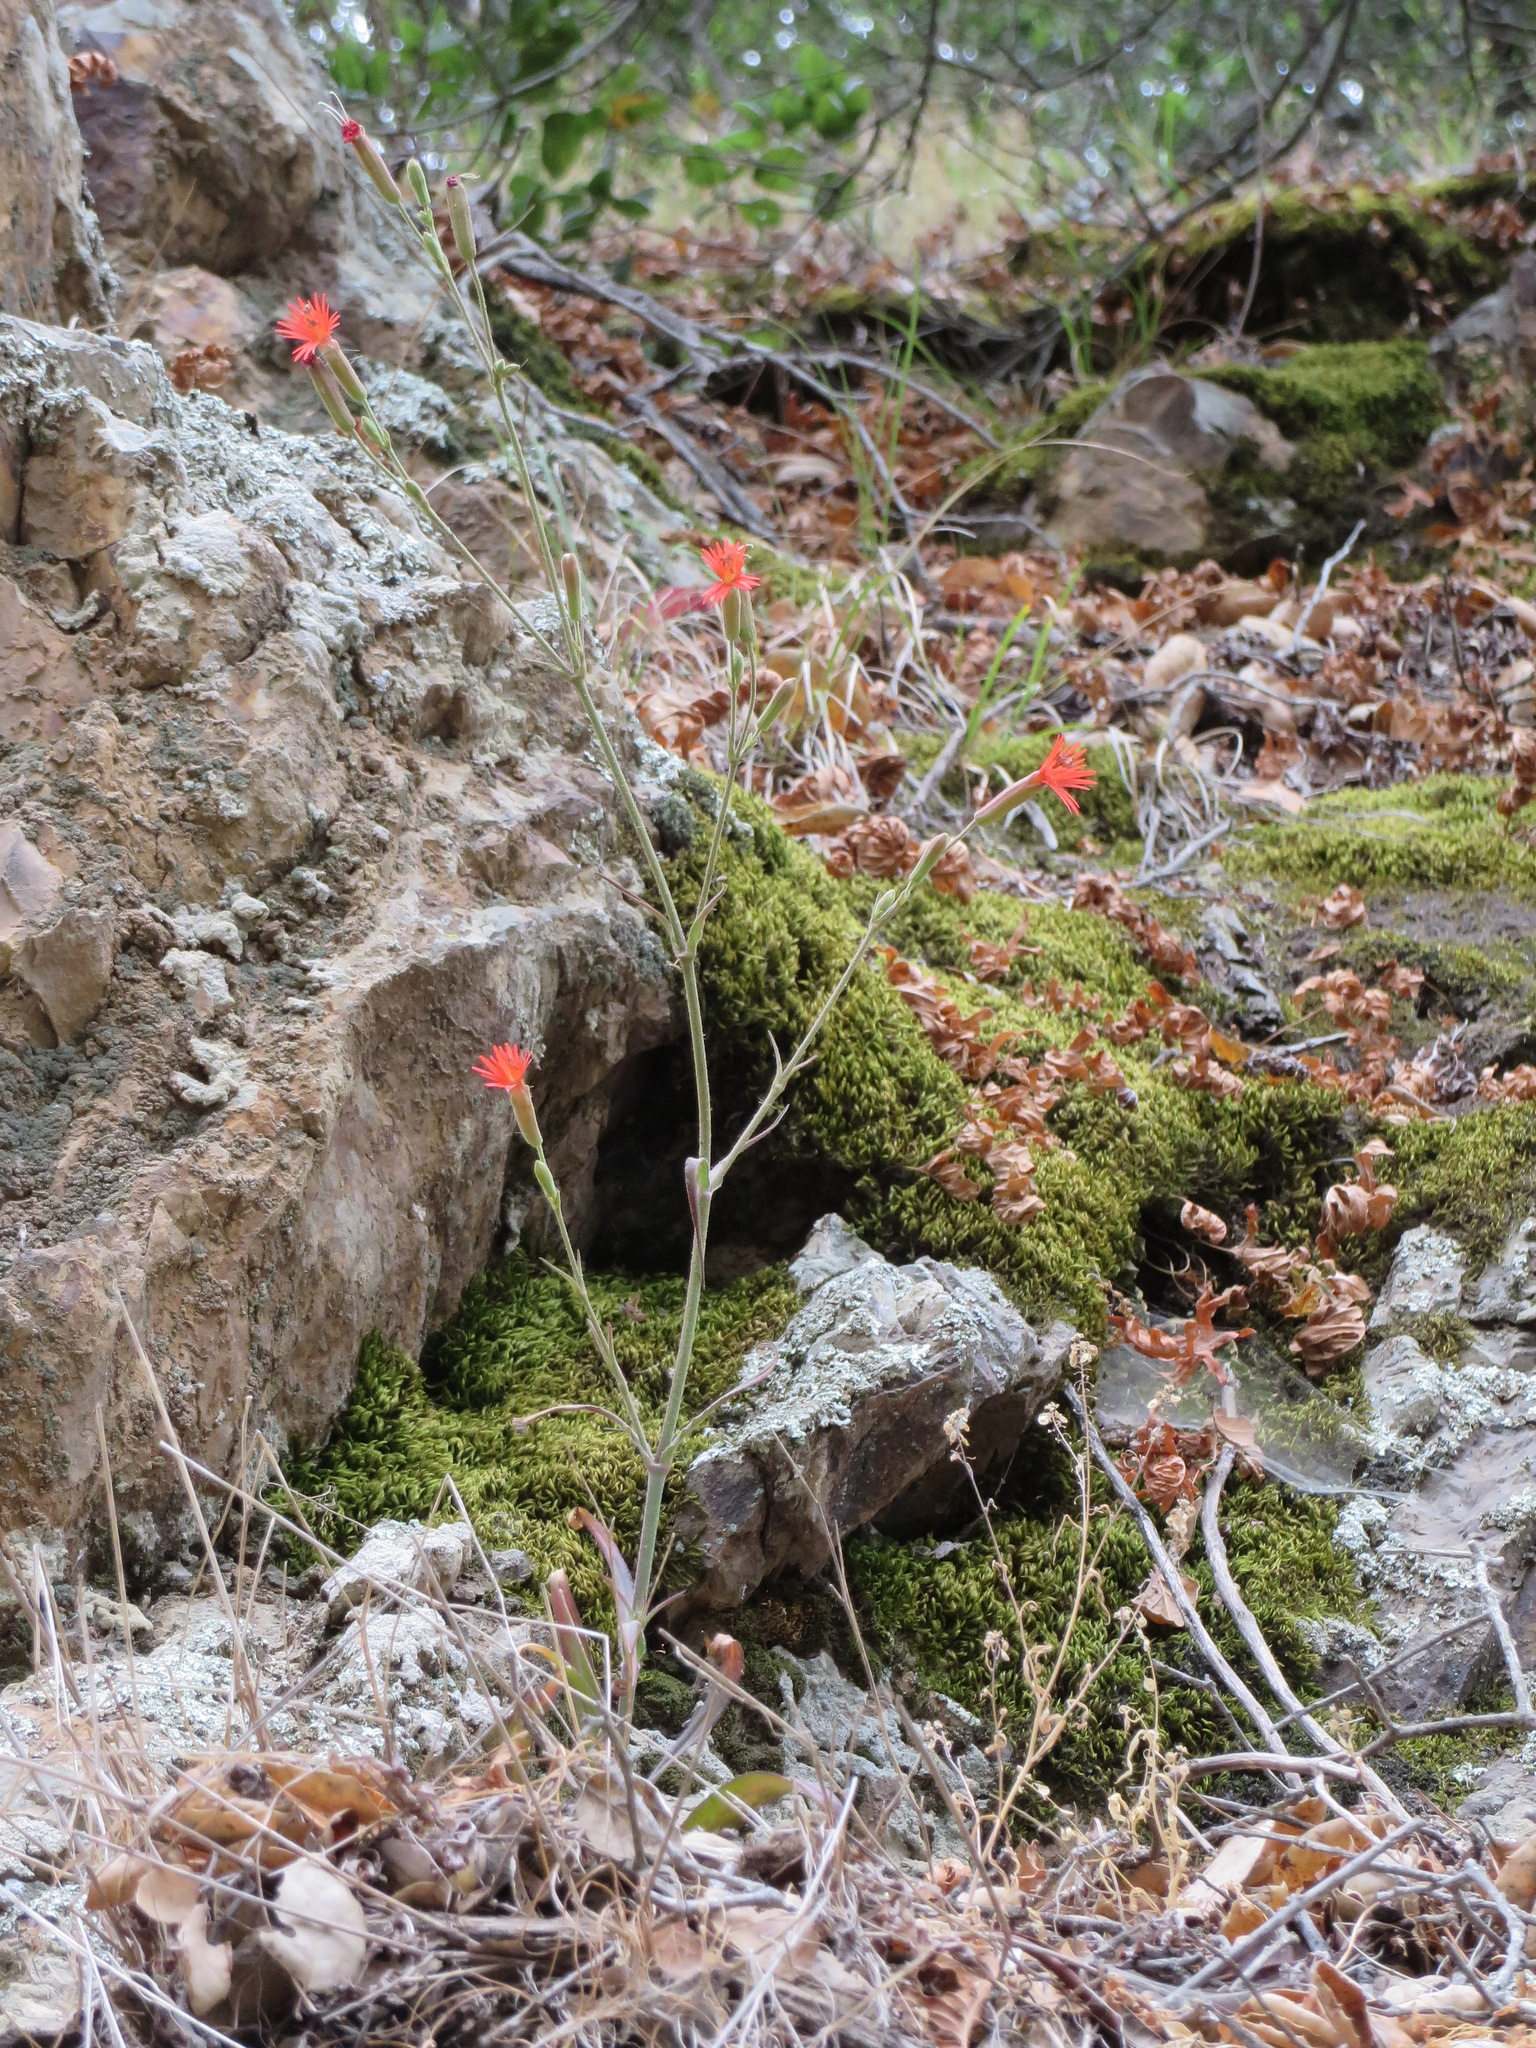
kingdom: Plantae
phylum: Tracheophyta
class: Magnoliopsida
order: Caryophyllales
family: Caryophyllaceae
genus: Silene
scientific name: Silene laciniata
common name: Indian-pink
